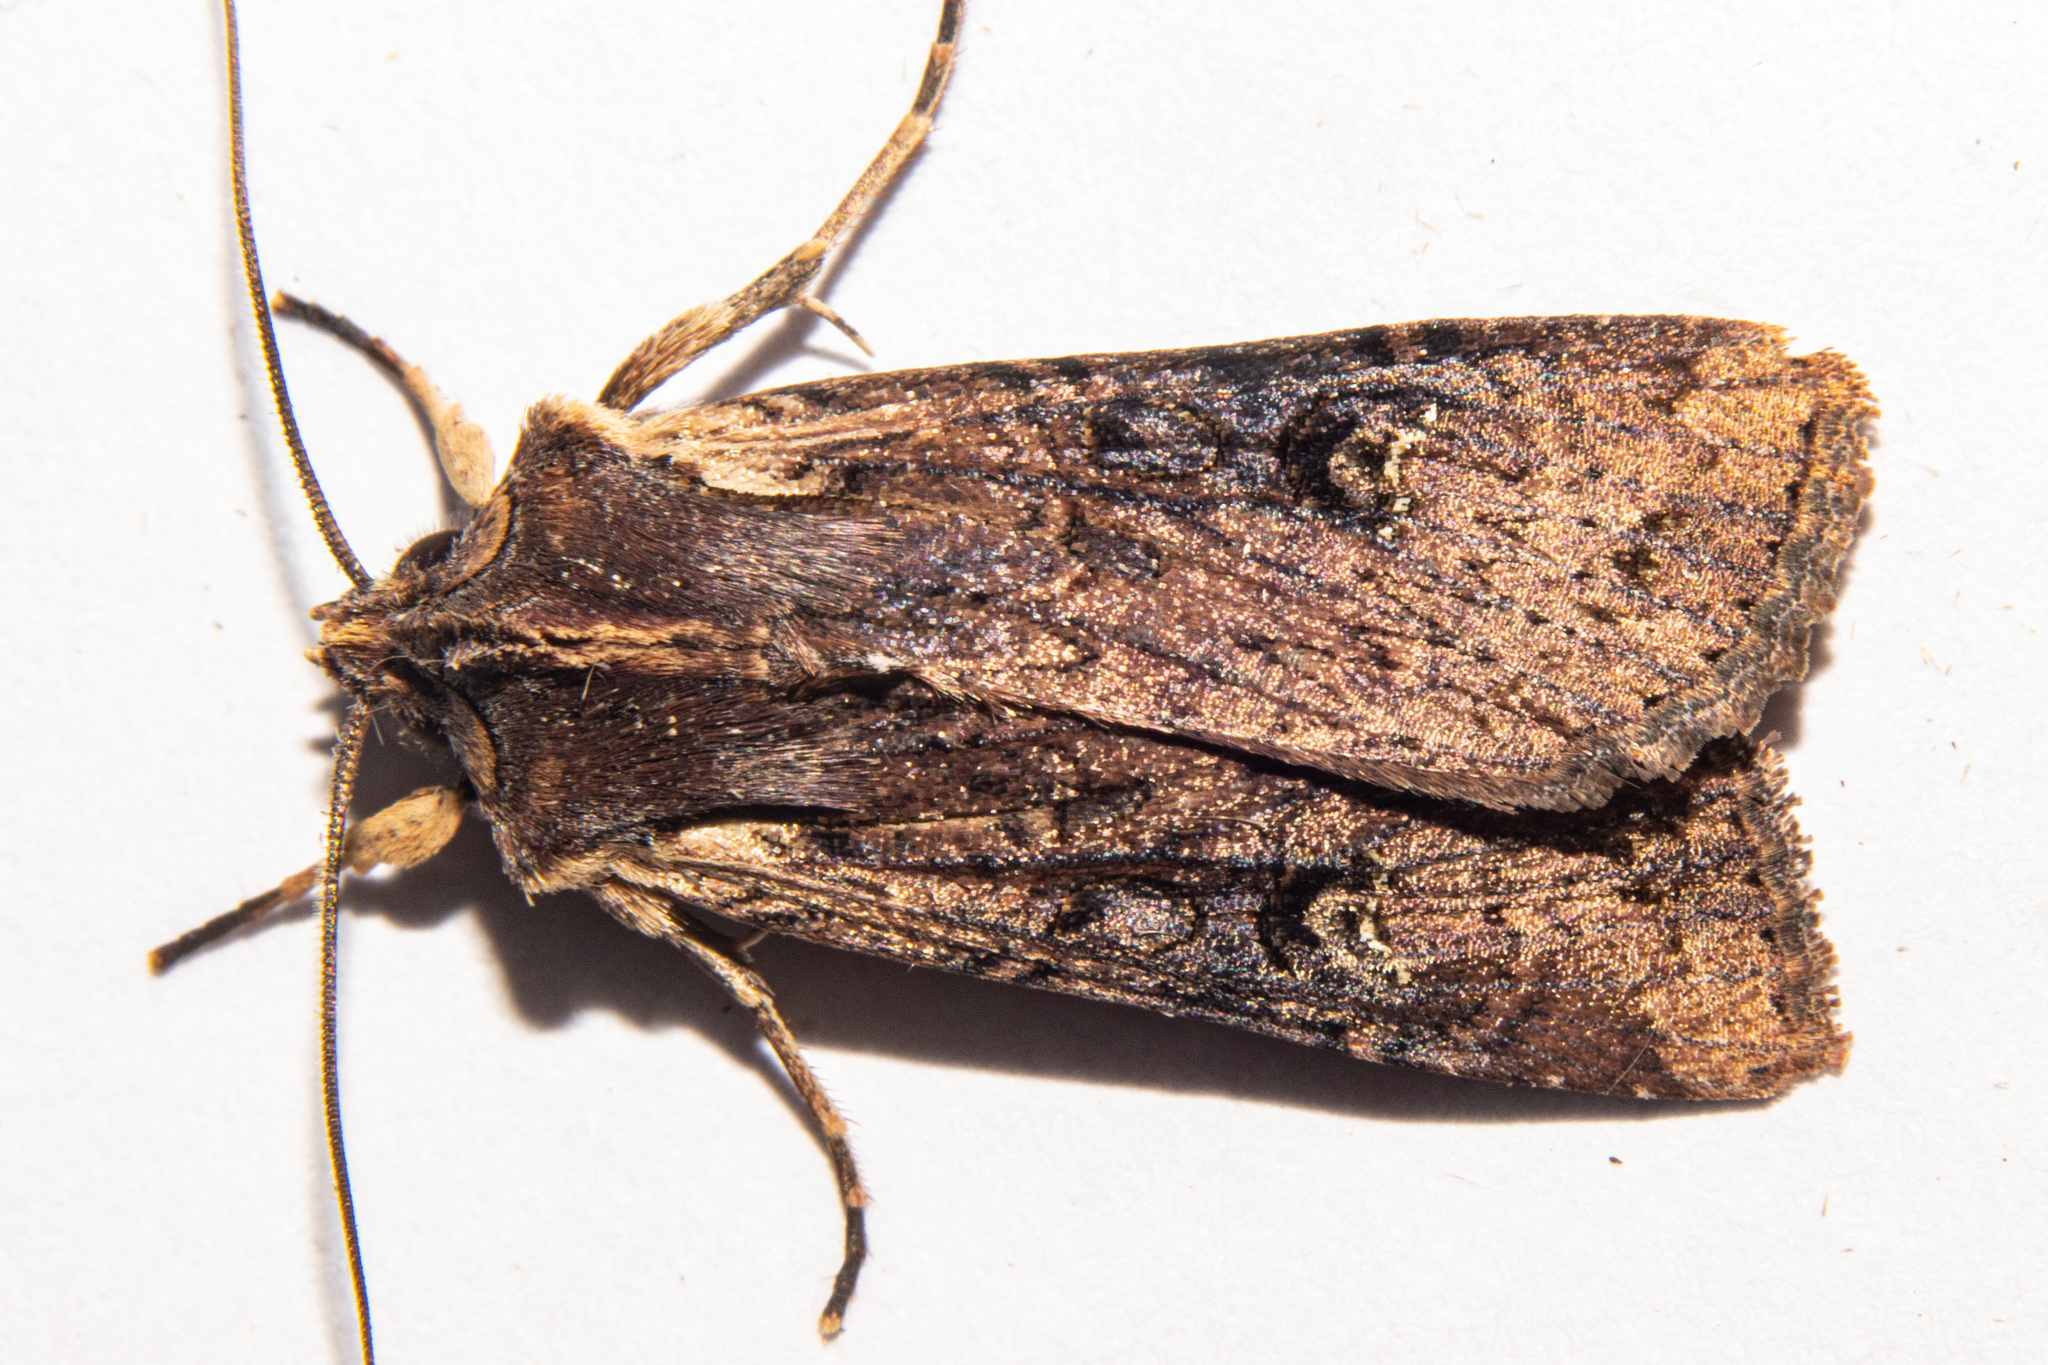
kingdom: Animalia
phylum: Arthropoda
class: Insecta
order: Lepidoptera
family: Noctuidae
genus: Ichneutica
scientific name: Ichneutica omoplaca
